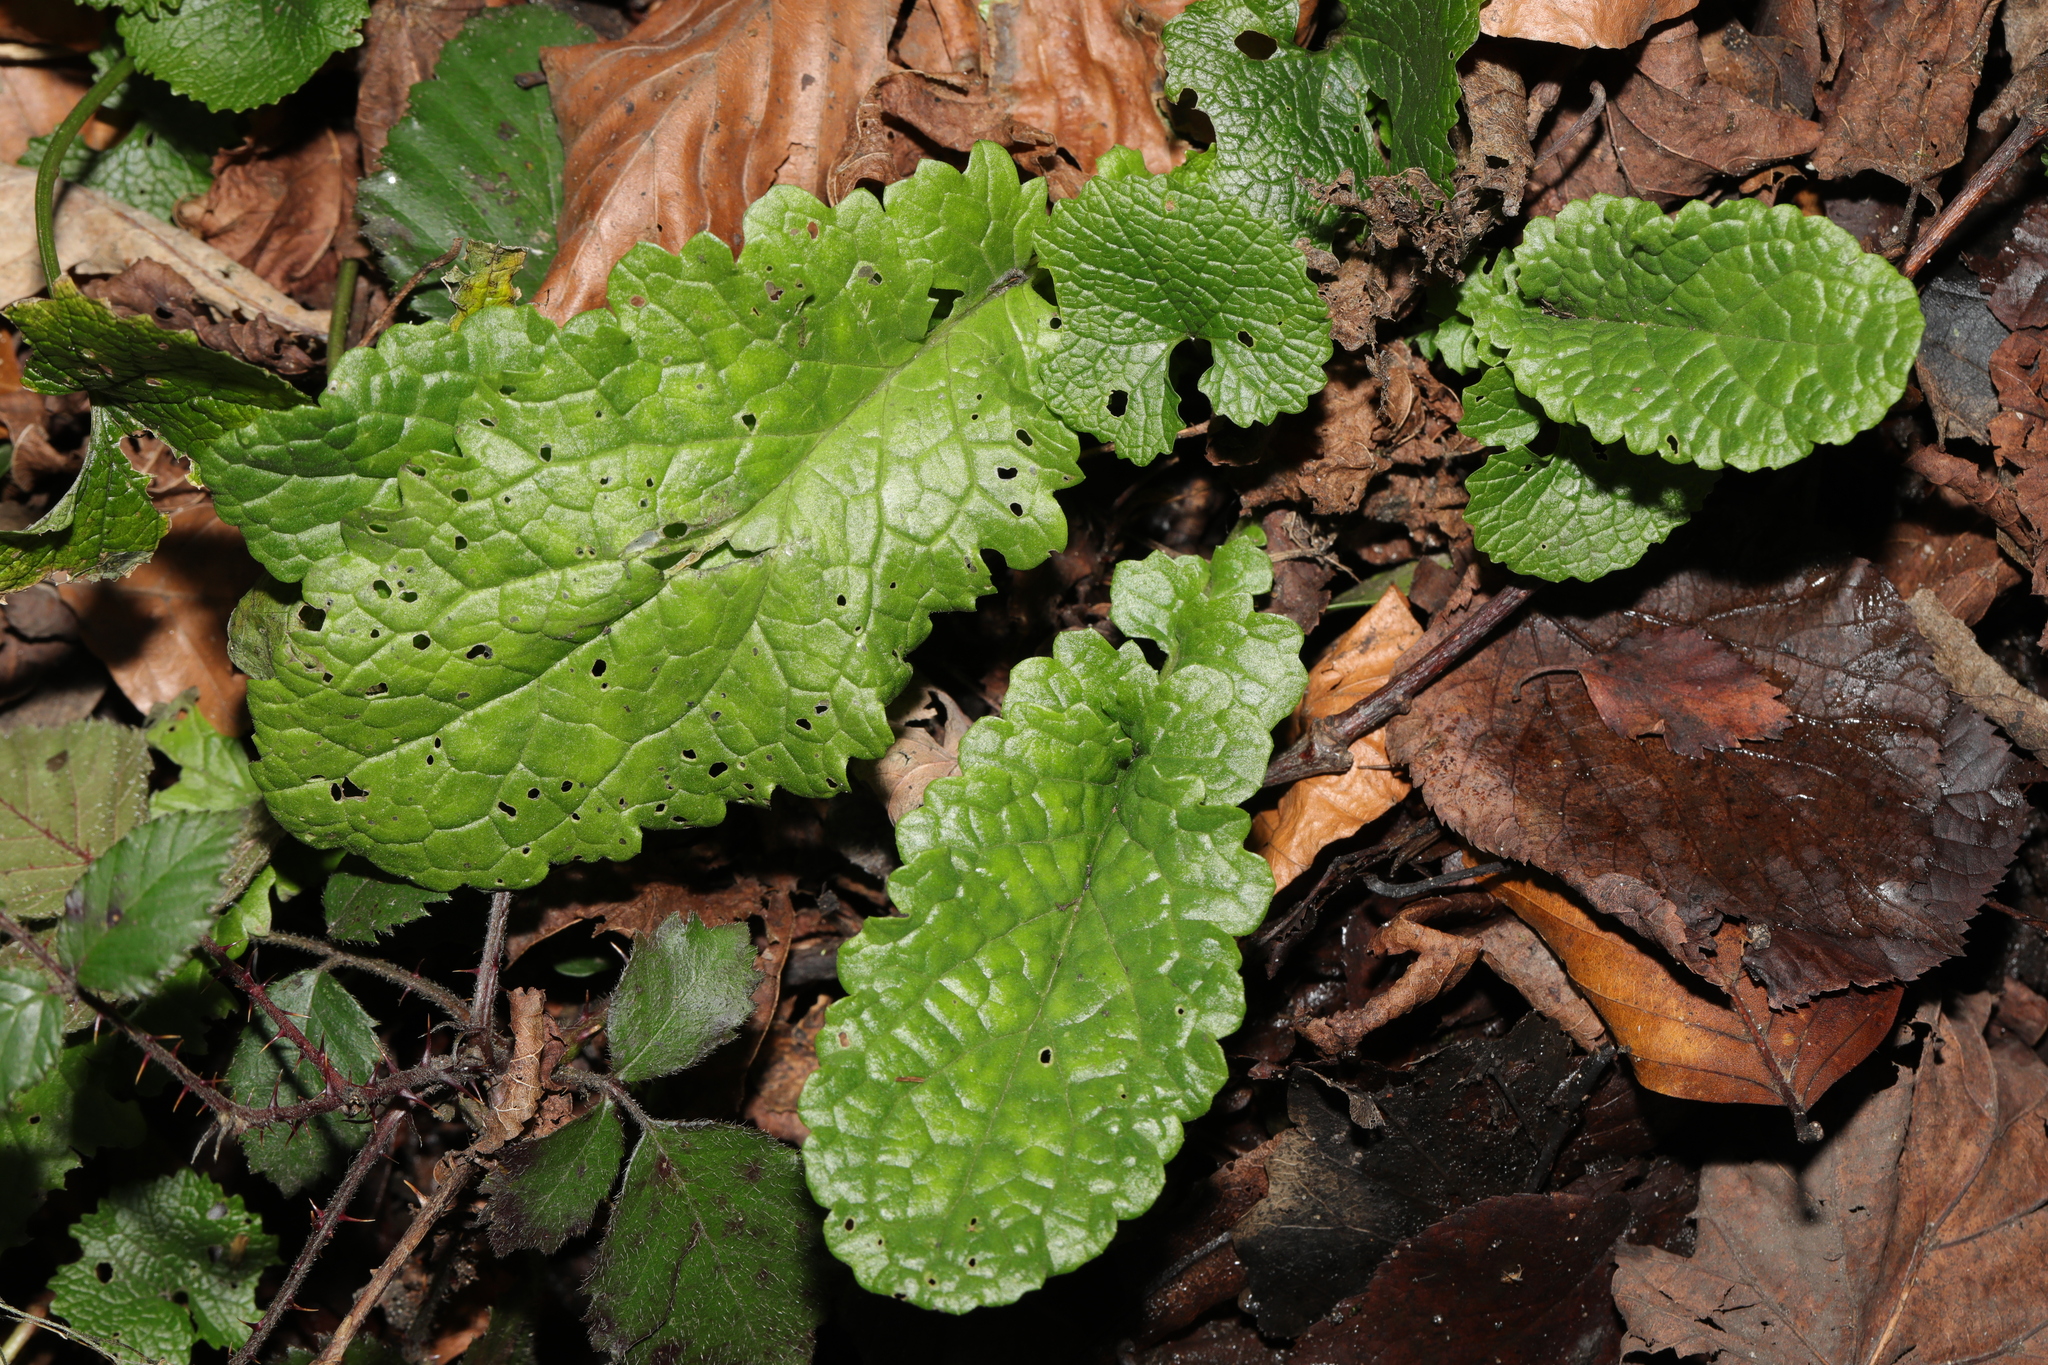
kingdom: Plantae
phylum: Tracheophyta
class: Magnoliopsida
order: Asterales
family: Asteraceae
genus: Jacobaea
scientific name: Jacobaea vulgaris
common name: Stinking willie
